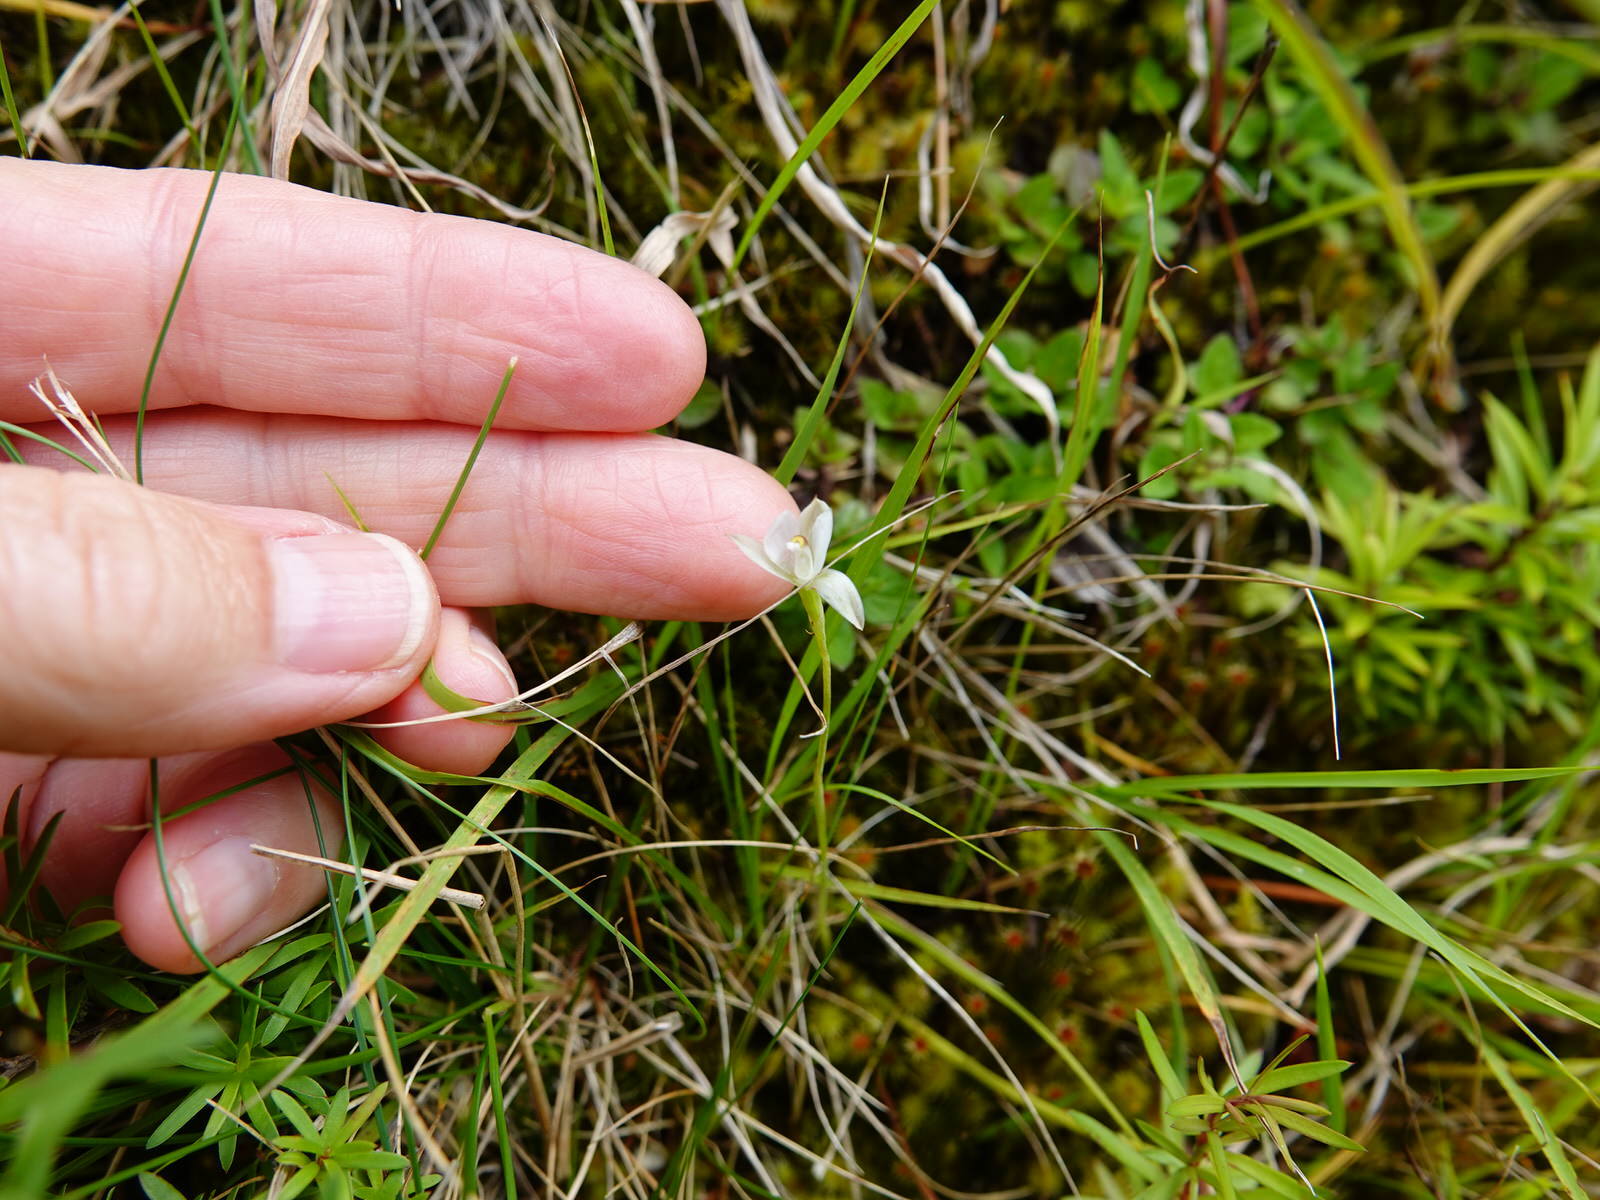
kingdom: Plantae
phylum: Tracheophyta
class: Liliopsida
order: Asparagales
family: Orchidaceae
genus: Thelymitra
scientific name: Thelymitra longifolia
